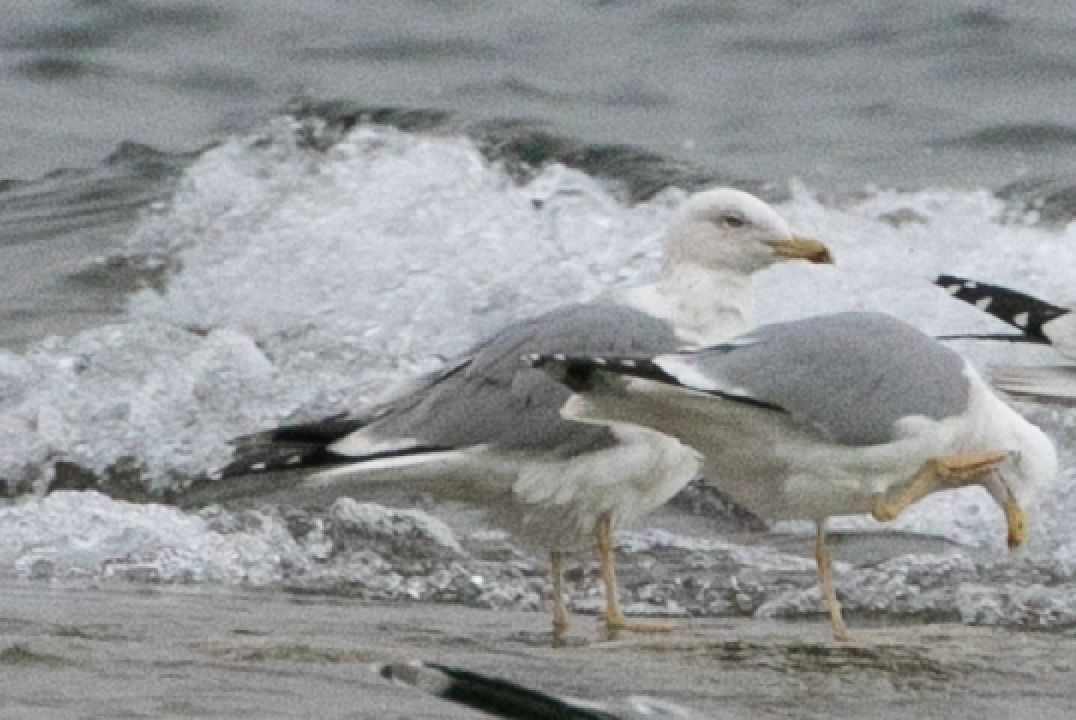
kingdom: Animalia
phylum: Chordata
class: Aves
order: Charadriiformes
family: Laridae
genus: Larus
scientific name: Larus michahellis
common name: Yellow-legged gull
